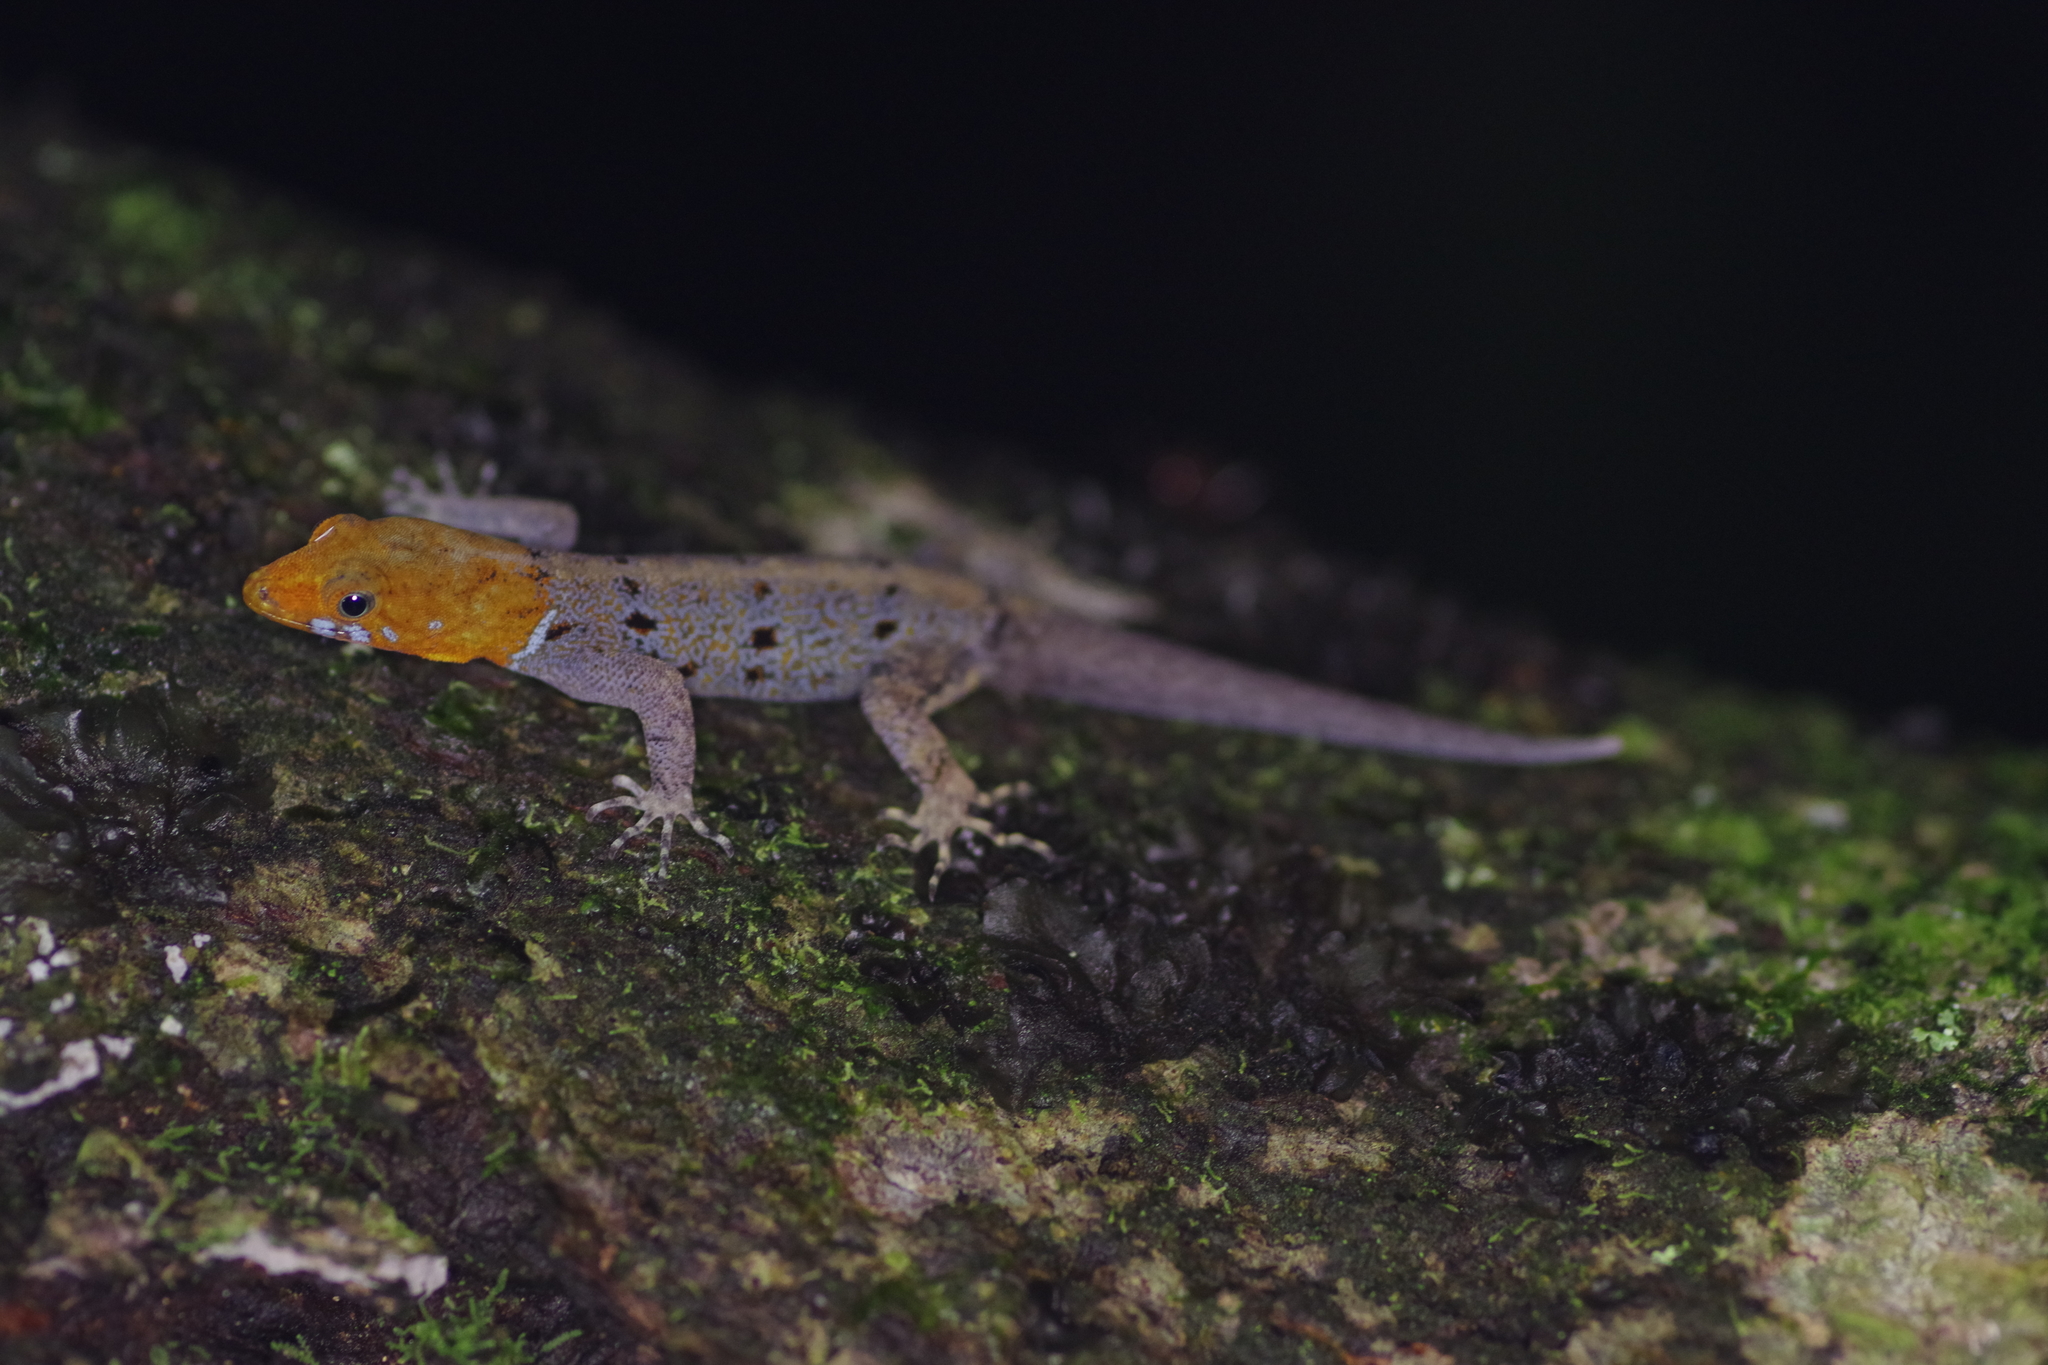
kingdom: Animalia
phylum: Chordata
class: Squamata
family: Sphaerodactylidae
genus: Gonatodes
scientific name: Gonatodes albogularis
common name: Yellow-headed gecko
